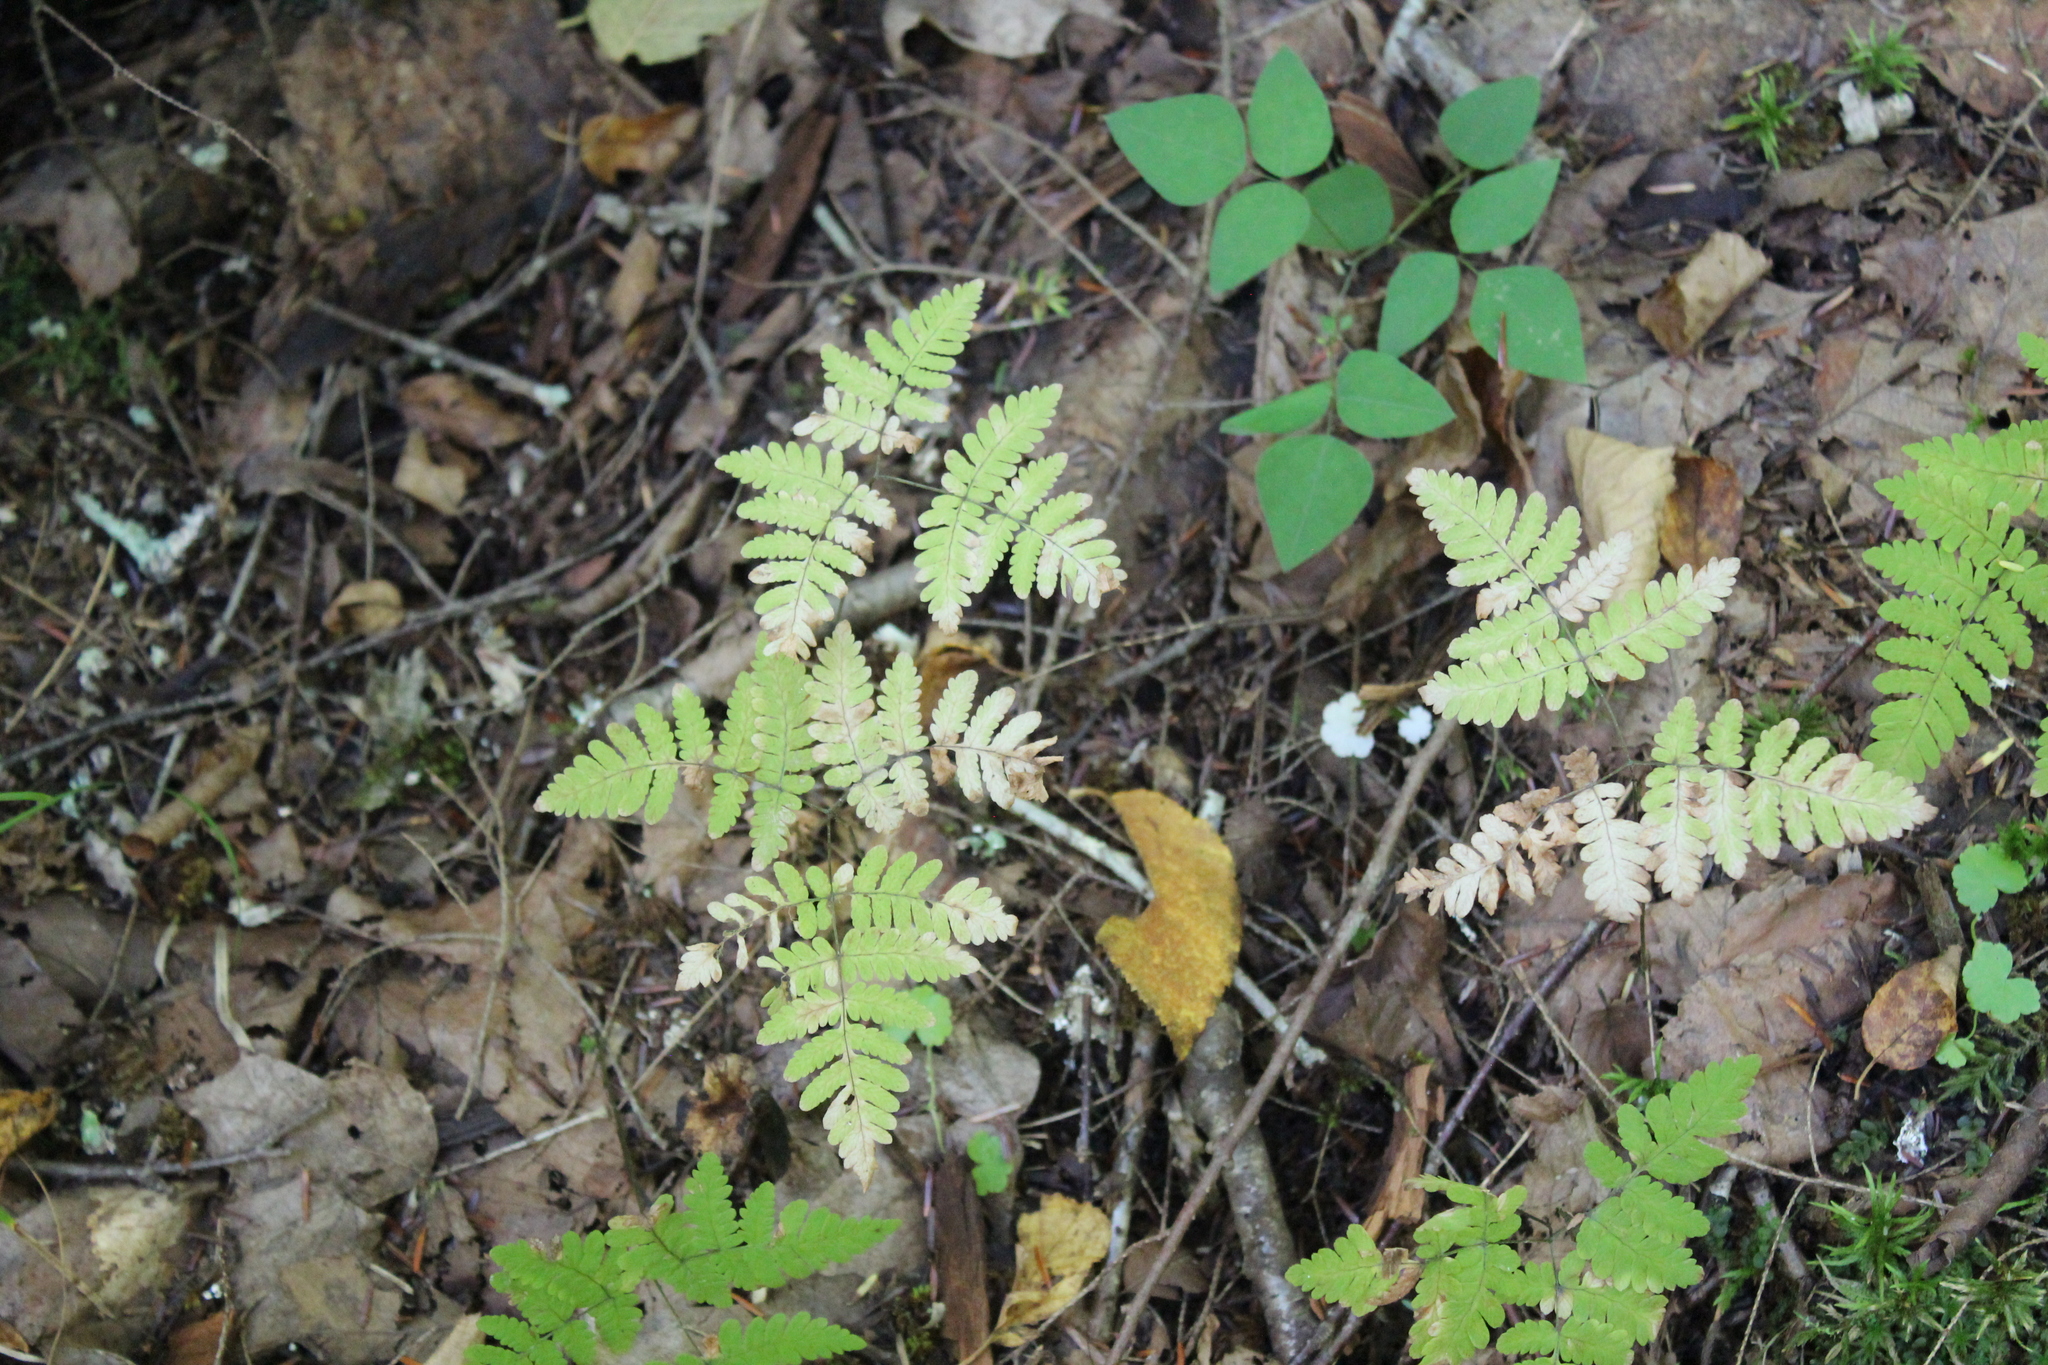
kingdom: Plantae
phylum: Tracheophyta
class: Polypodiopsida
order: Polypodiales
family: Cystopteridaceae
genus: Gymnocarpium
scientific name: Gymnocarpium dryopteris
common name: Oak fern
